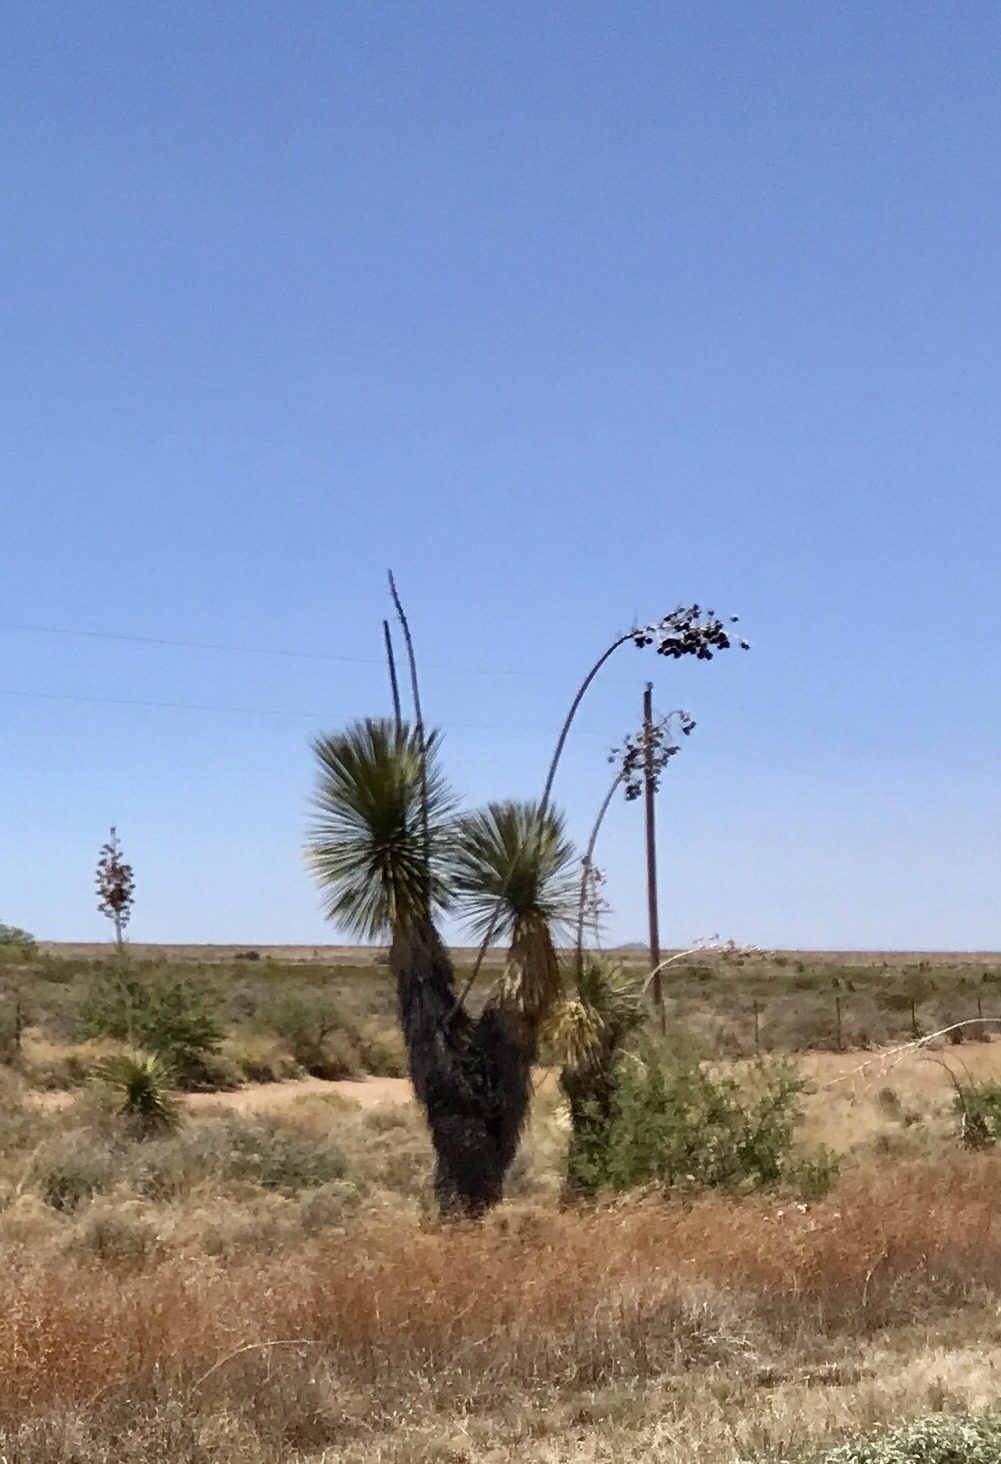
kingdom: Plantae
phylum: Tracheophyta
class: Liliopsida
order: Asparagales
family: Asparagaceae
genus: Yucca
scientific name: Yucca elata
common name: Palmella
